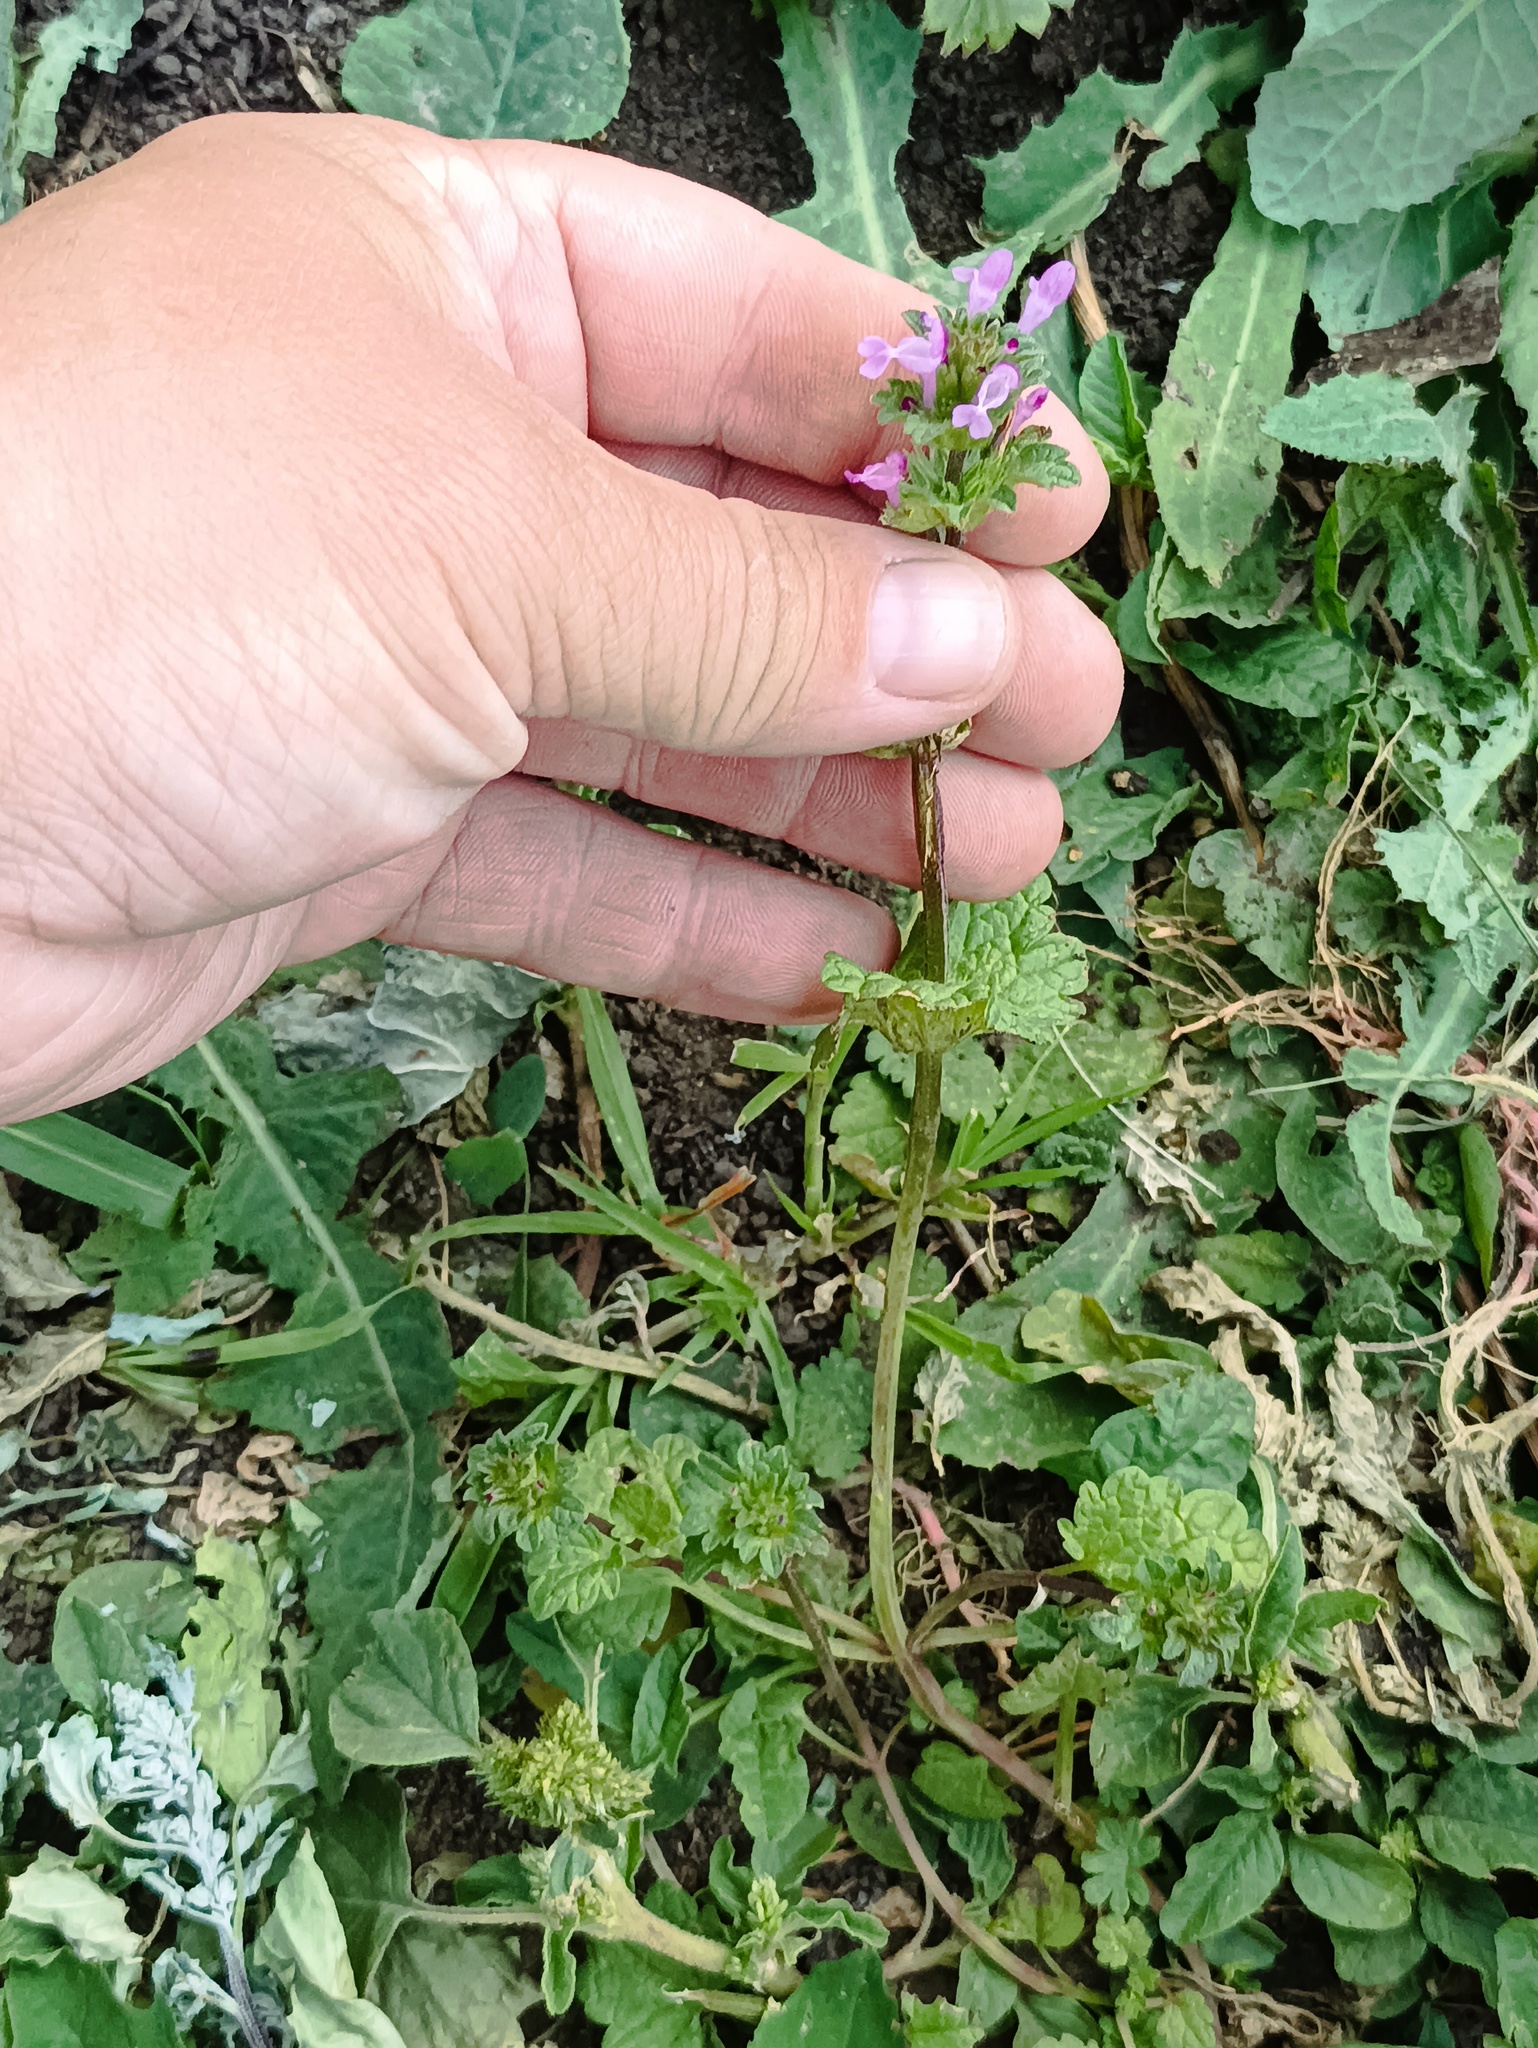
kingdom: Plantae
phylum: Tracheophyta
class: Magnoliopsida
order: Lamiales
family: Lamiaceae
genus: Lamium
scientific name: Lamium amplexicaule
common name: Henbit dead-nettle
